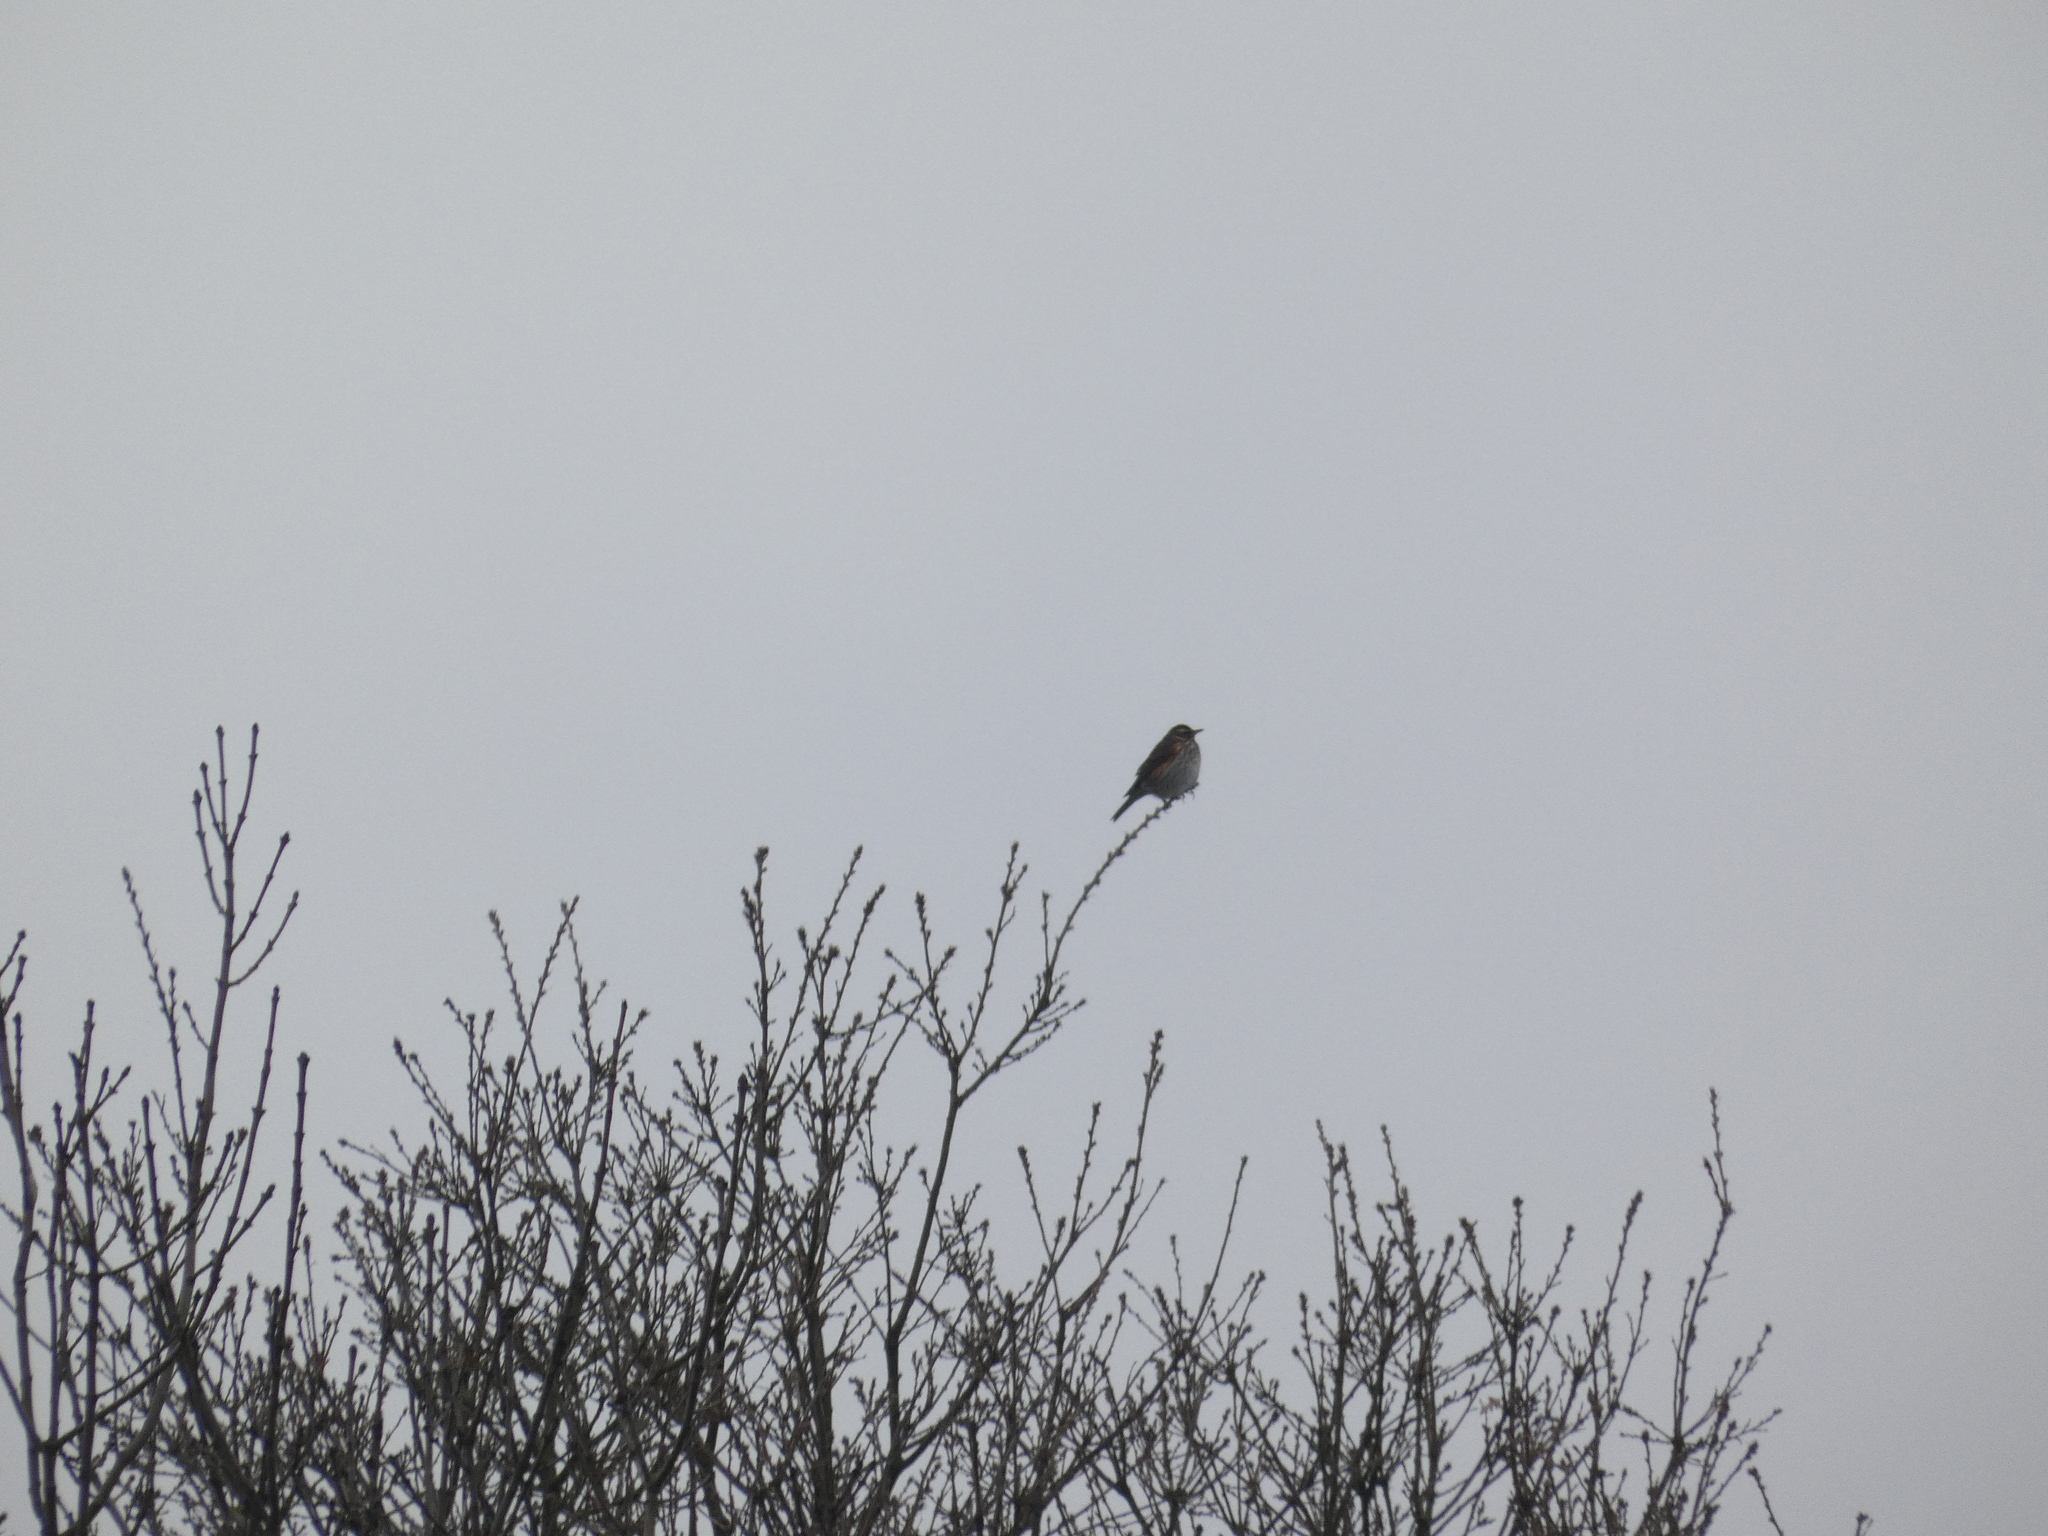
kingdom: Animalia
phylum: Chordata
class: Aves
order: Passeriformes
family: Turdidae
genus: Turdus
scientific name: Turdus iliacus
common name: Redwing
